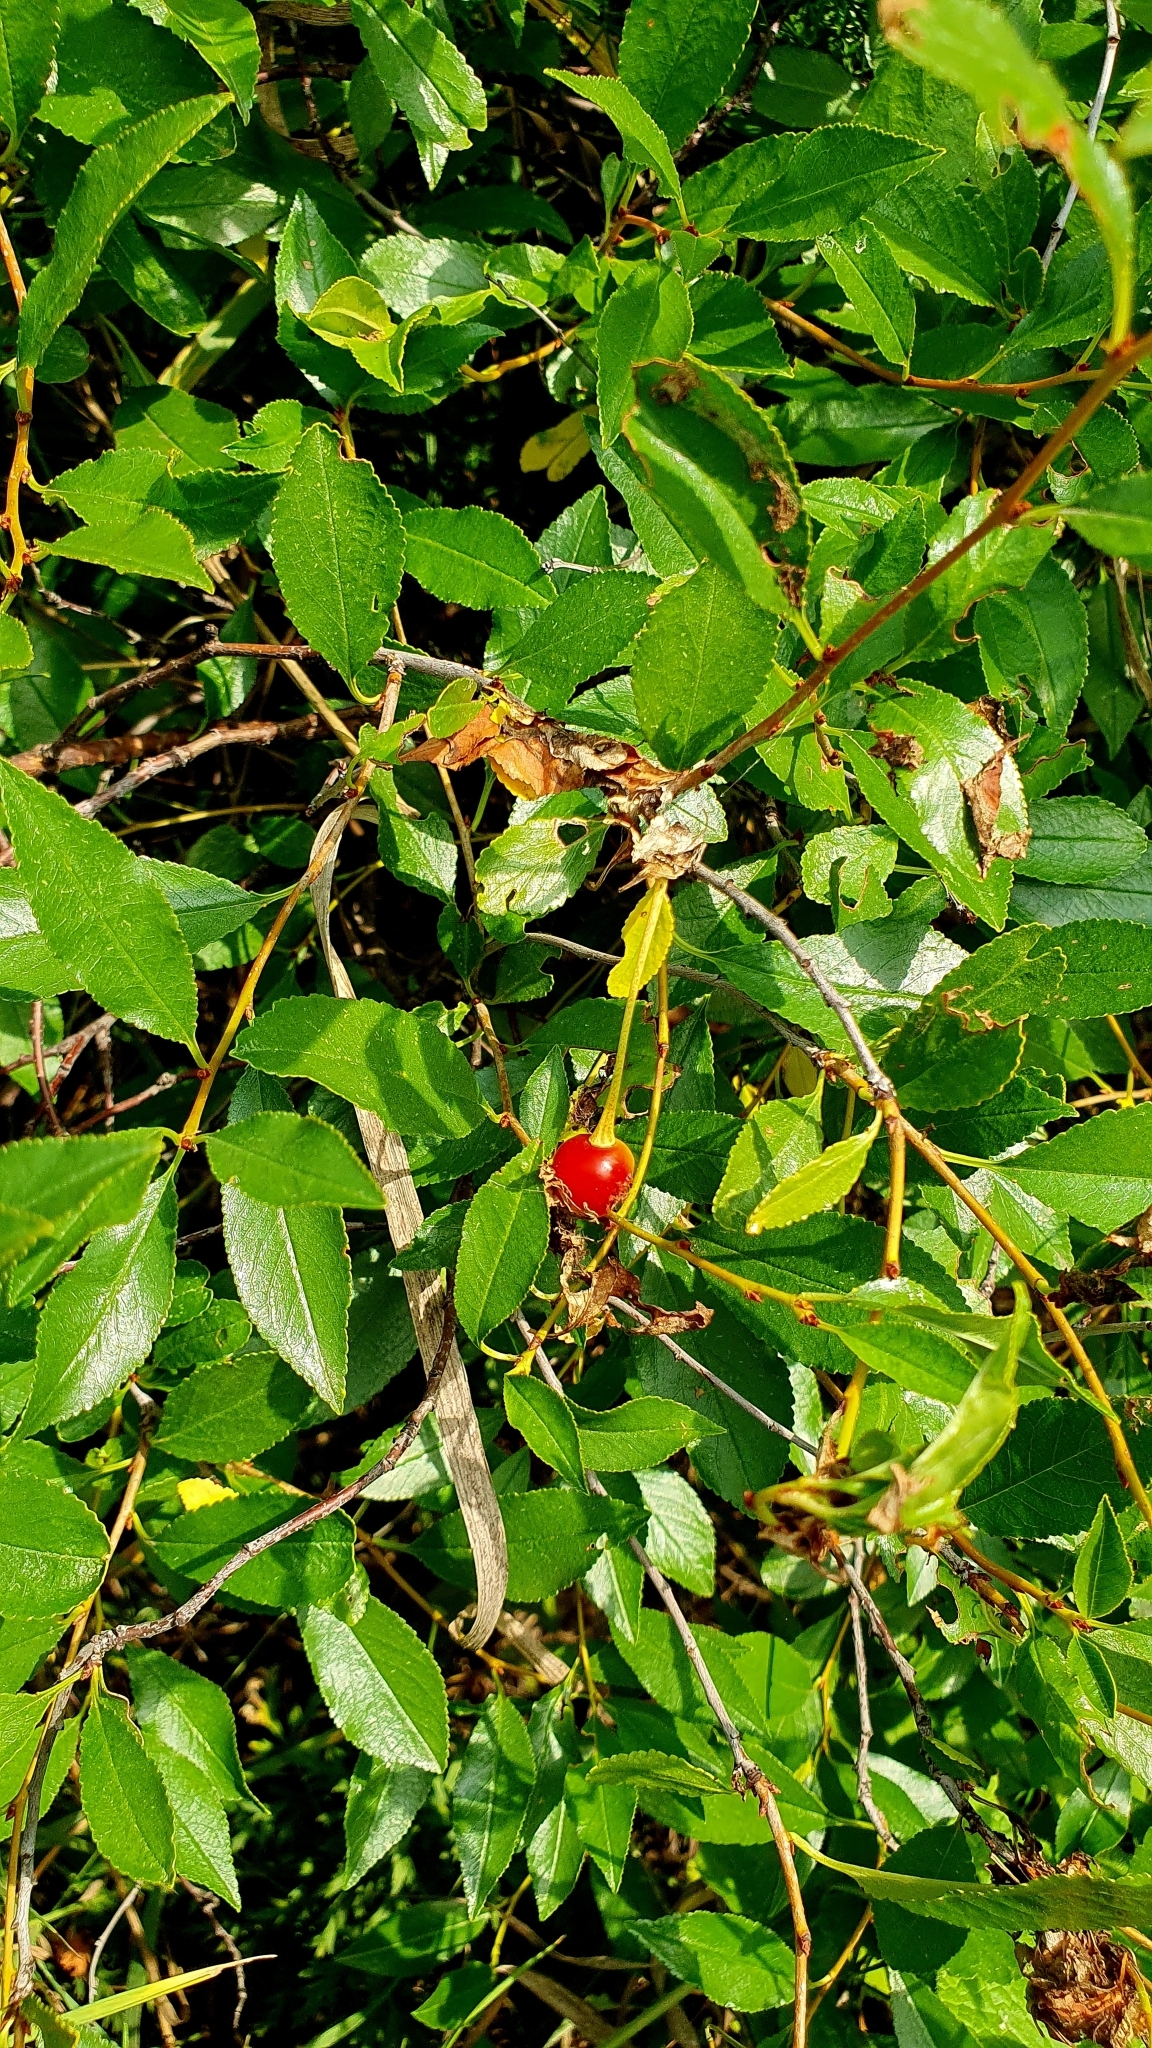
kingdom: Plantae
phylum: Tracheophyta
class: Magnoliopsida
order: Rosales
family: Rosaceae
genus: Prunus
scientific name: Prunus fruticosa
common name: European dwarf cherry
